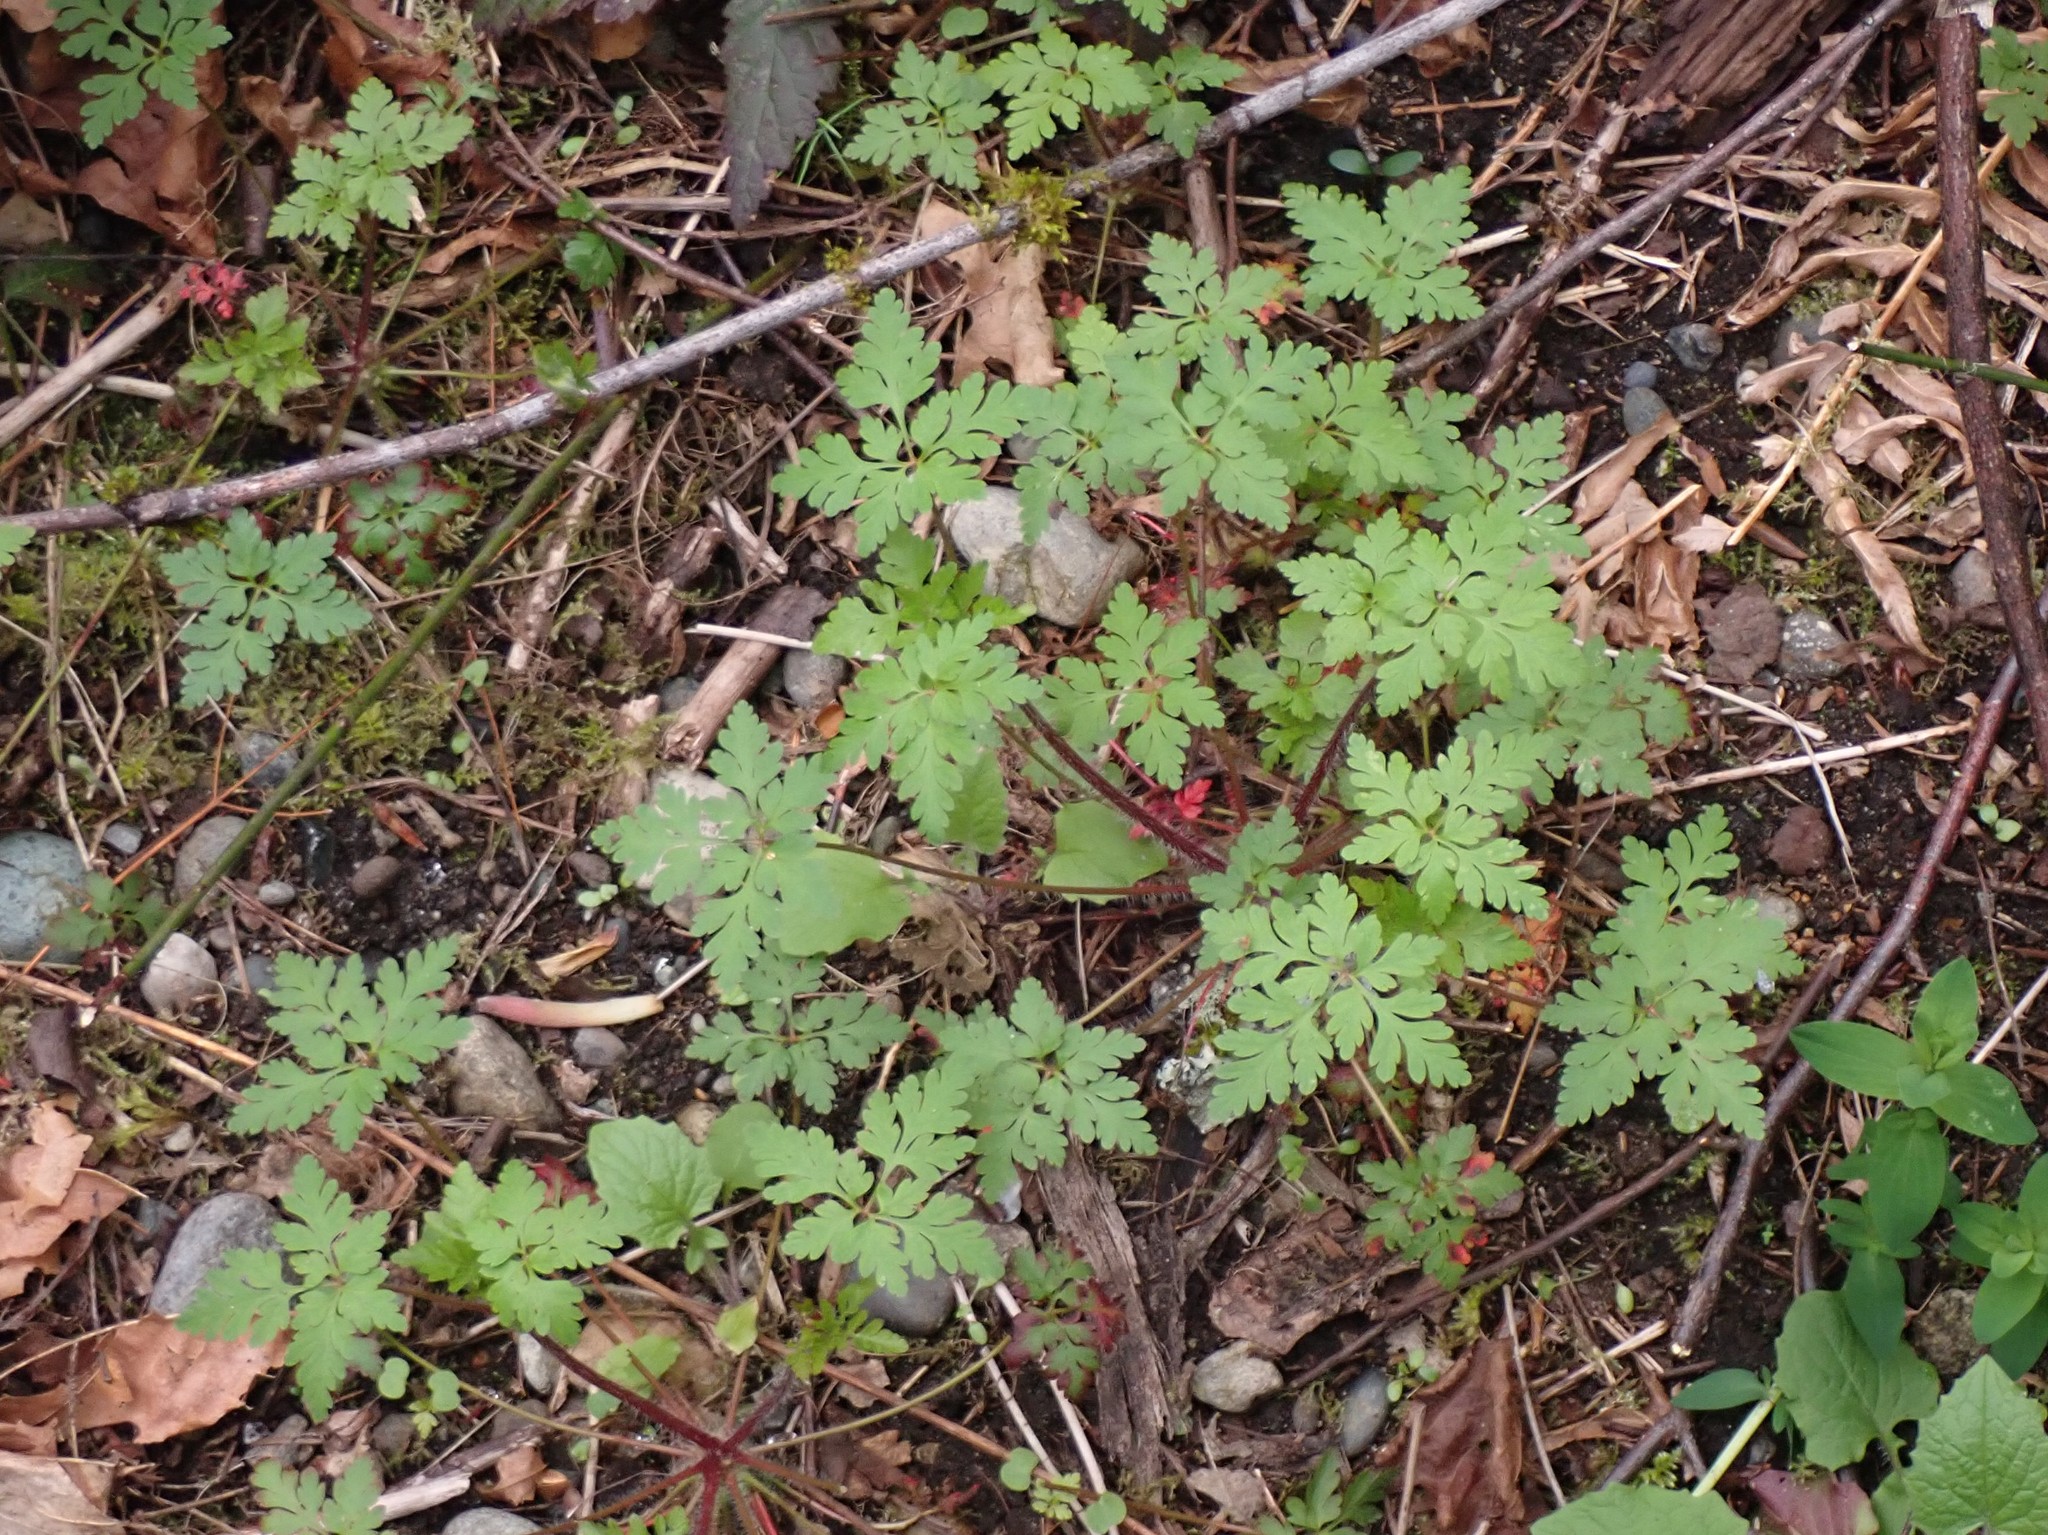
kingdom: Plantae
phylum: Tracheophyta
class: Magnoliopsida
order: Geraniales
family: Geraniaceae
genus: Geranium
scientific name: Geranium robertianum
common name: Herb-robert
